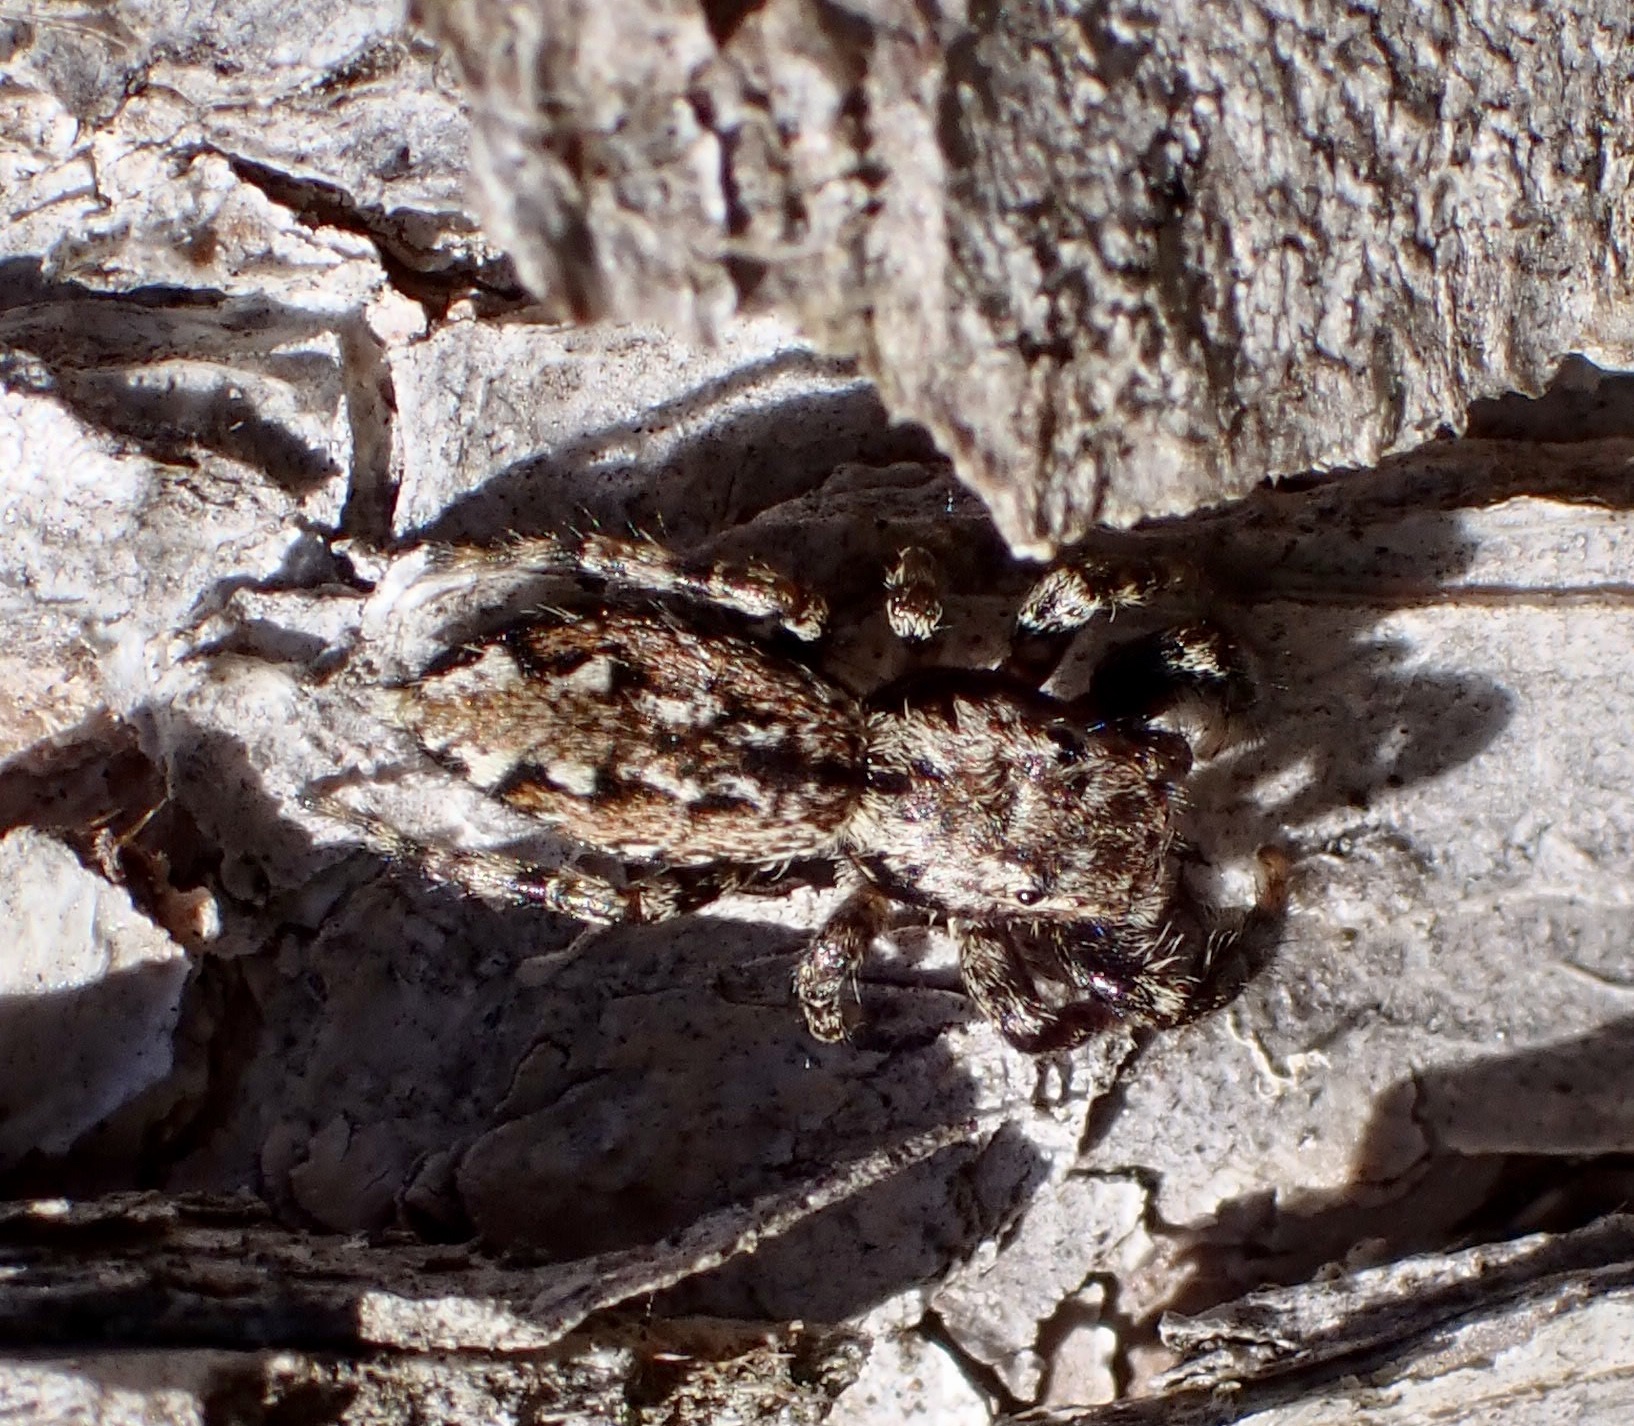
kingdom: Animalia
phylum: Arthropoda
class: Arachnida
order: Araneae
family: Salticidae
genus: Marpissa
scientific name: Marpissa muscosa
